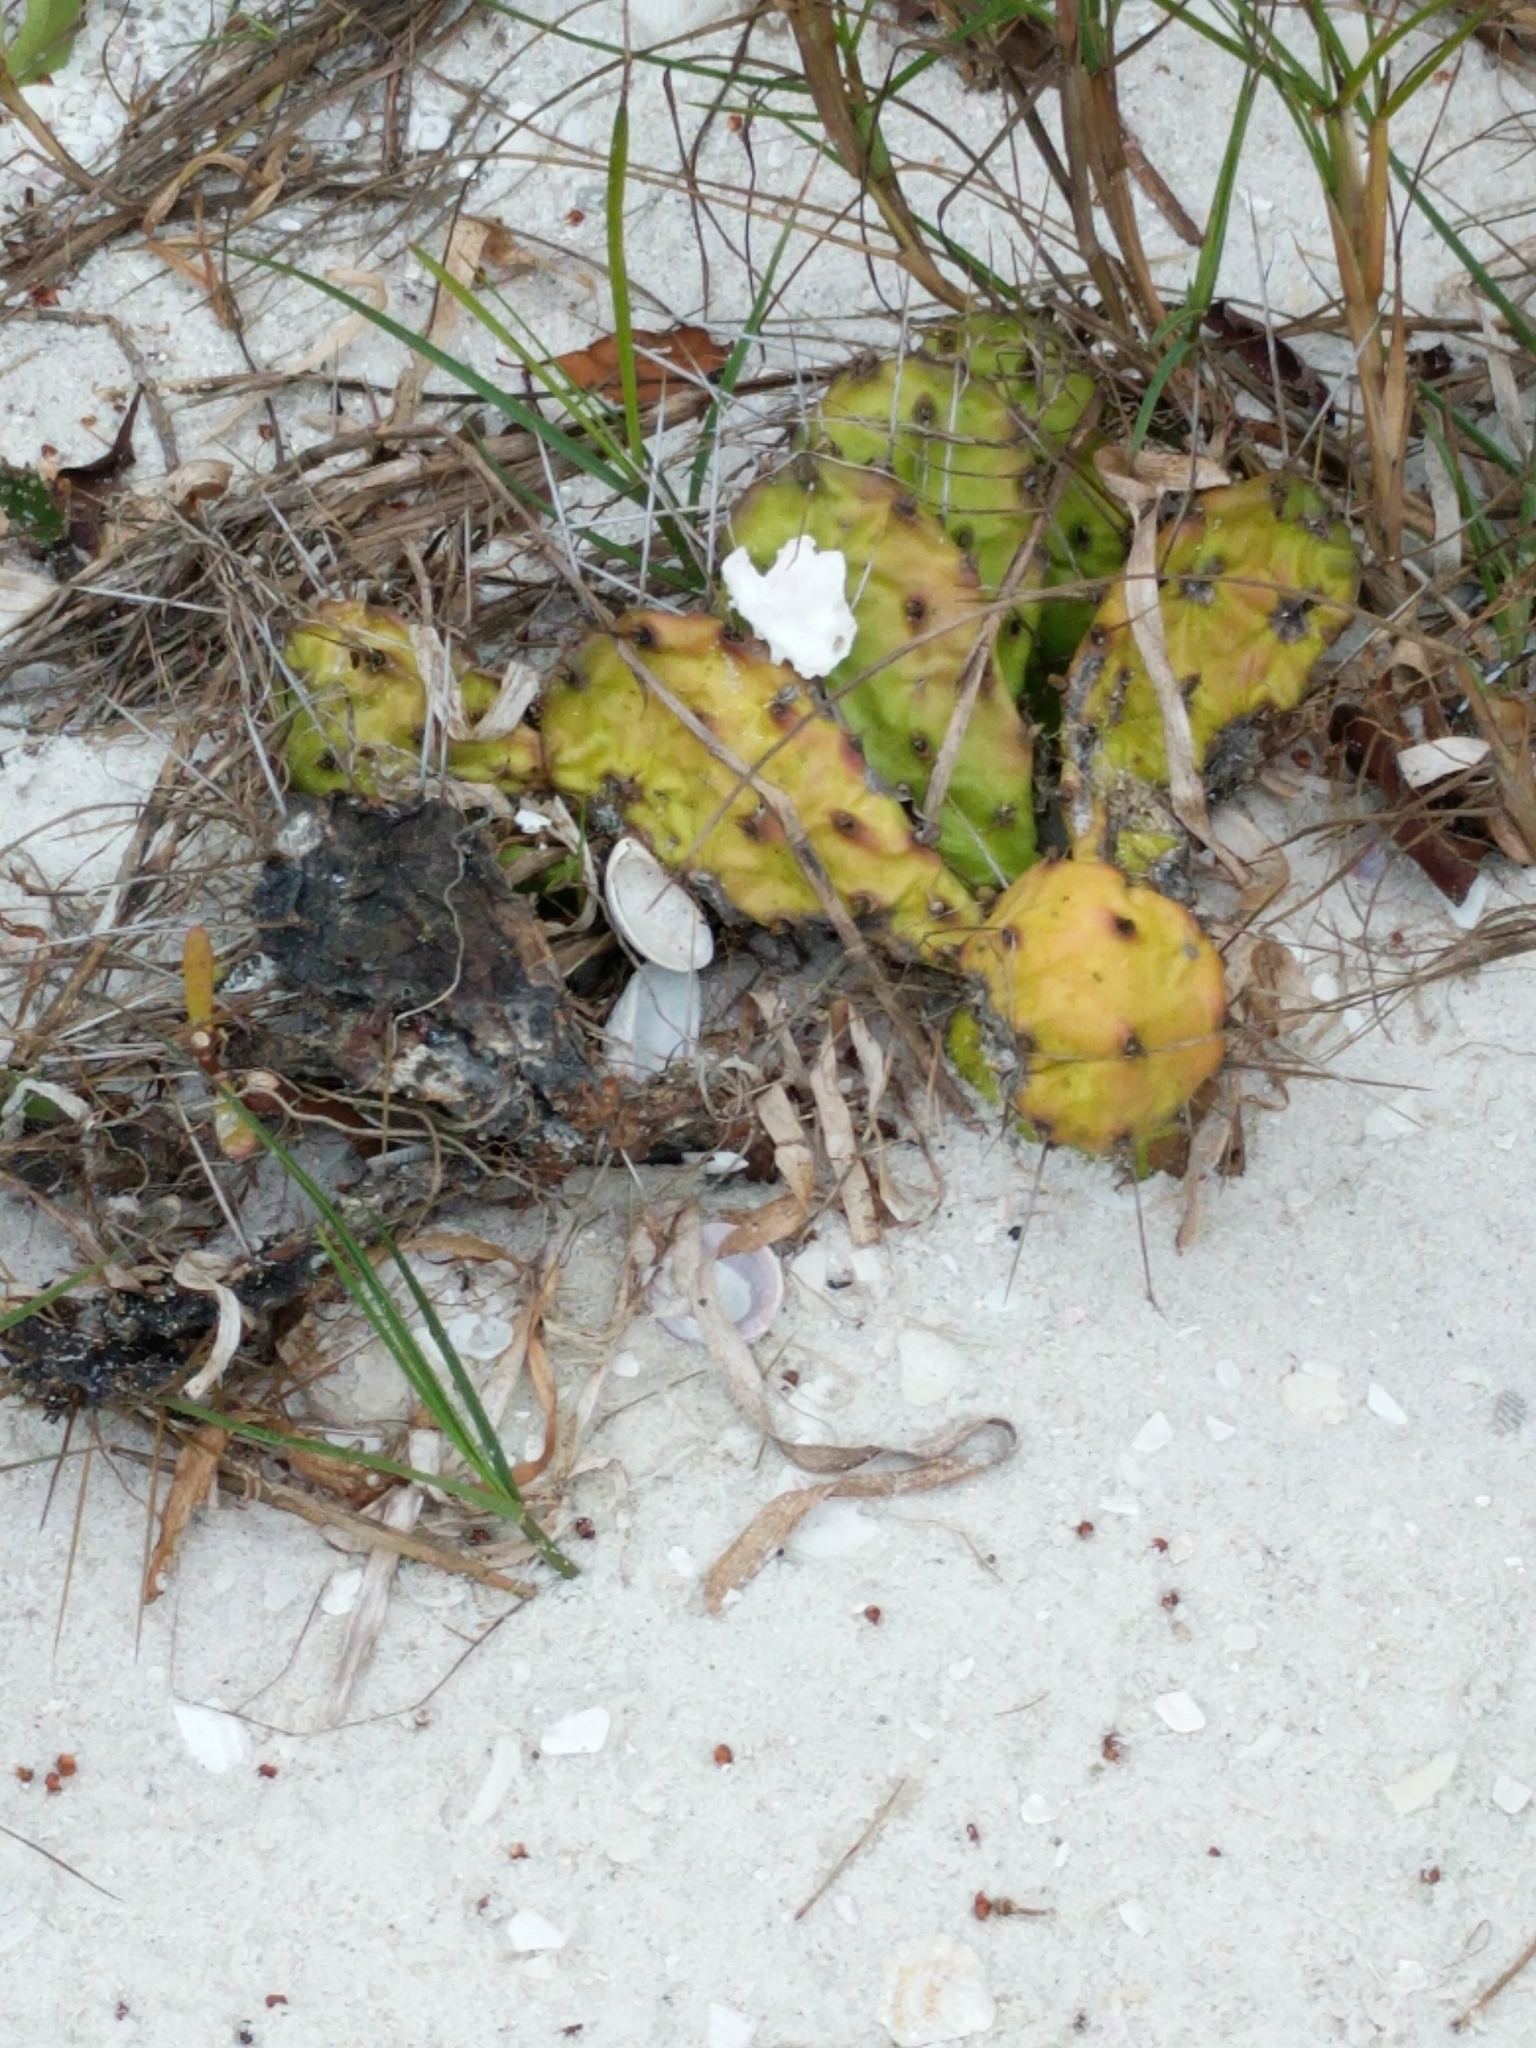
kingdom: Plantae
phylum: Tracheophyta
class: Magnoliopsida
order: Caryophyllales
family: Cactaceae
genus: Opuntia
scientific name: Opuntia mesacantha
